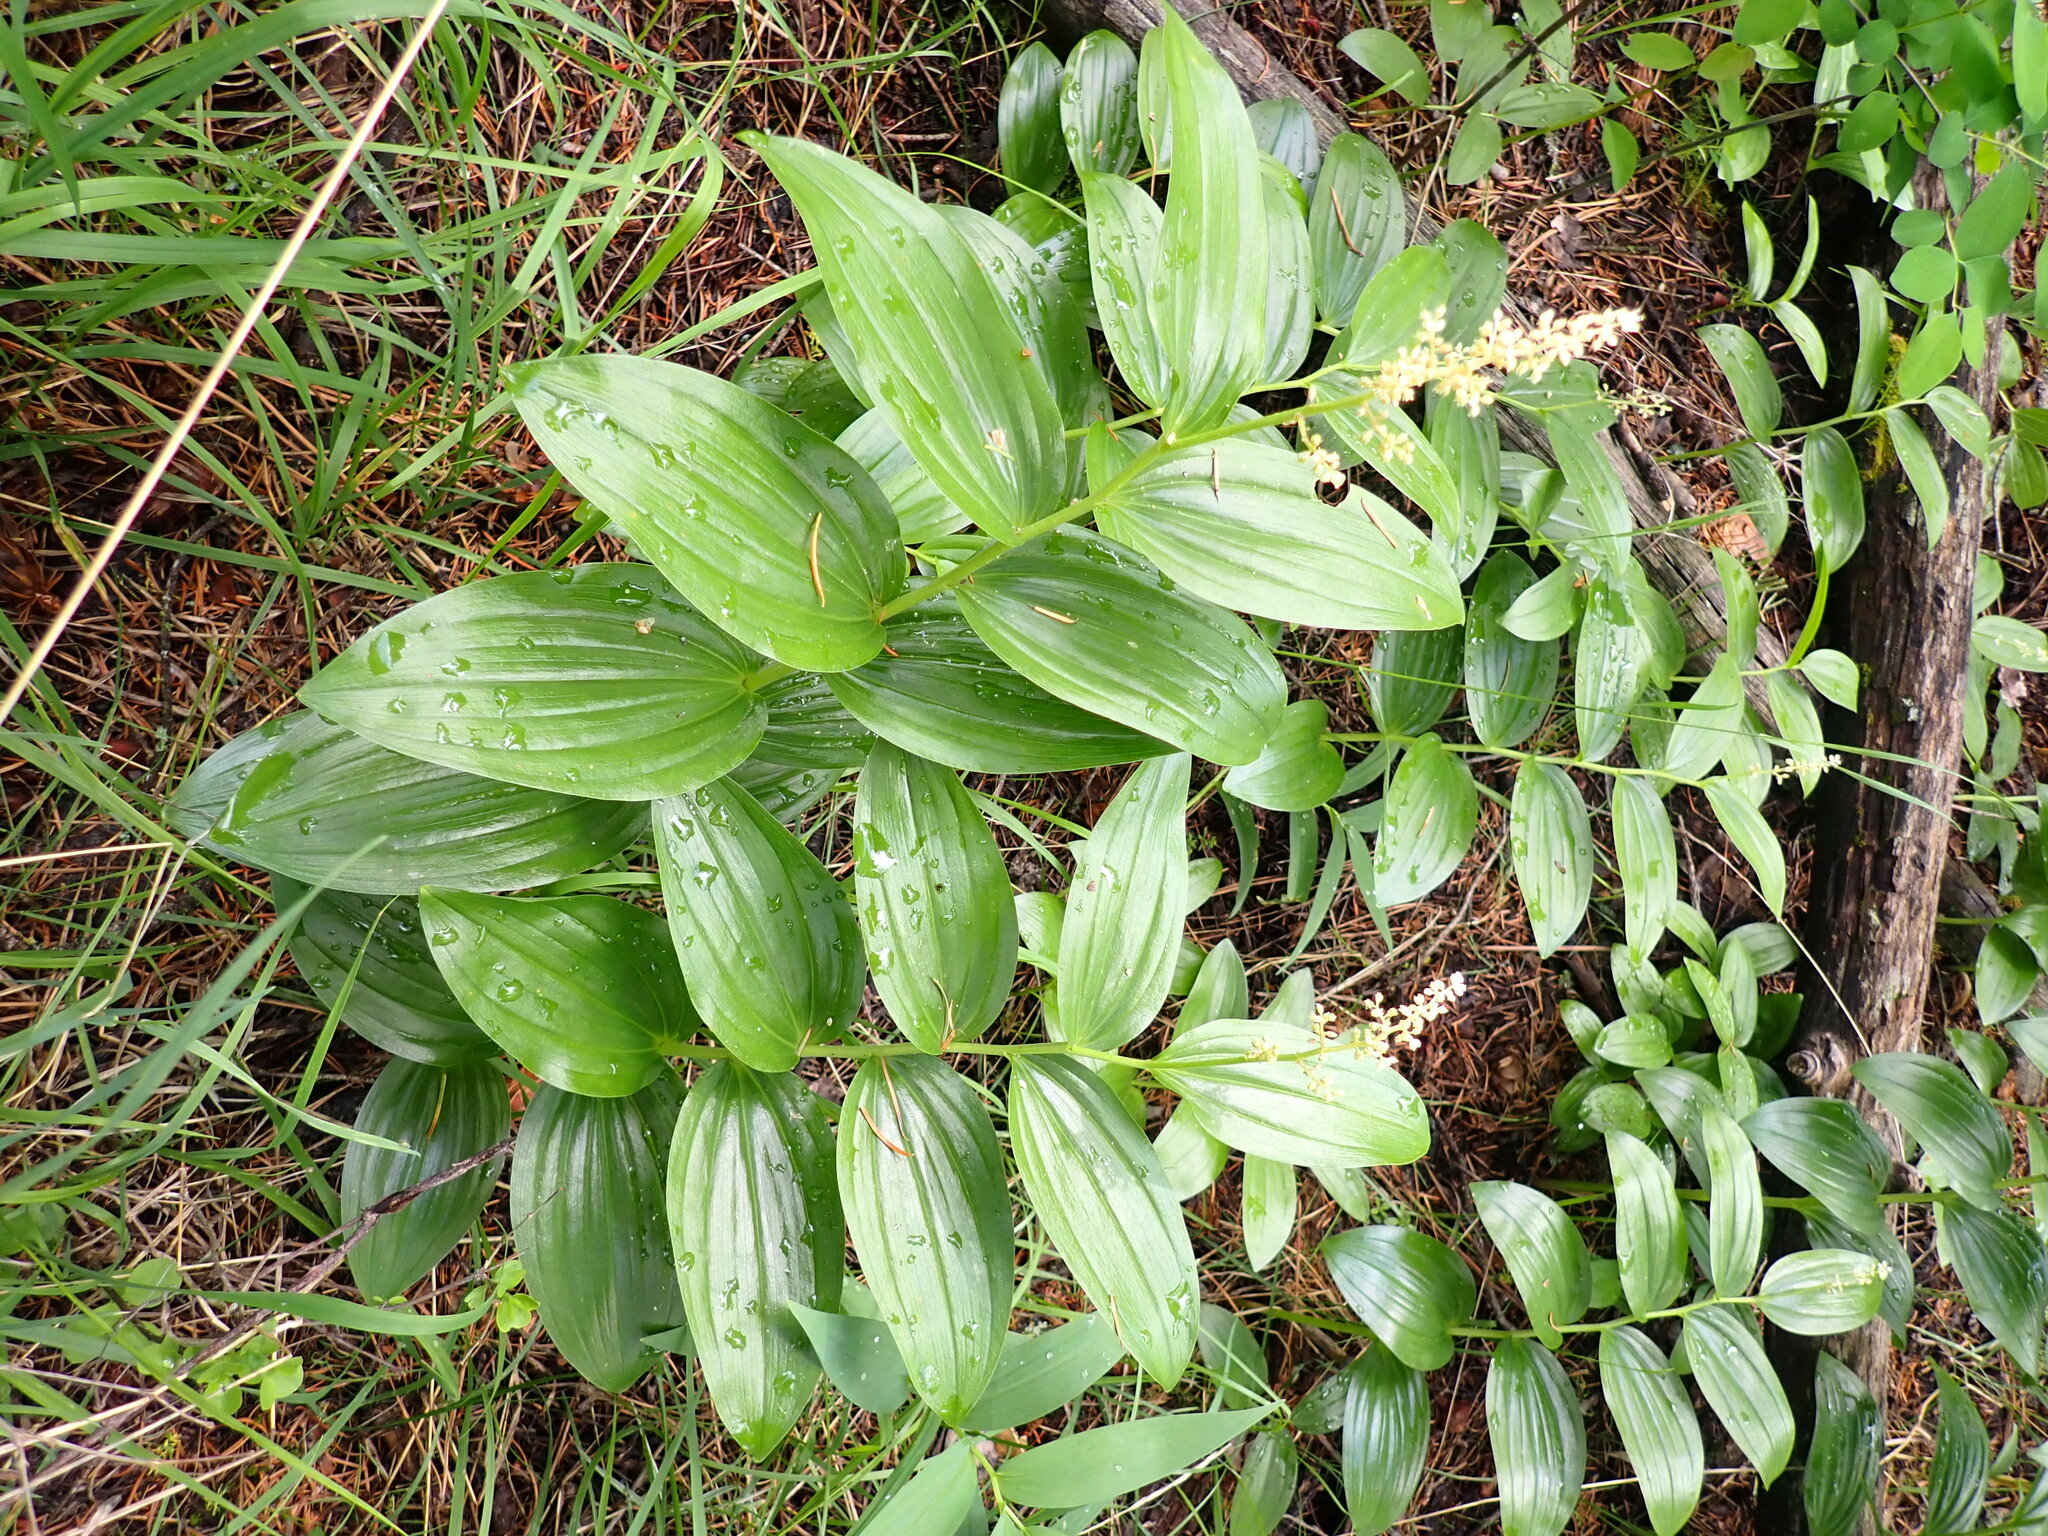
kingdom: Plantae
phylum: Tracheophyta
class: Liliopsida
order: Asparagales
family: Asparagaceae
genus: Maianthemum
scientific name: Maianthemum racemosum
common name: False spikenard
